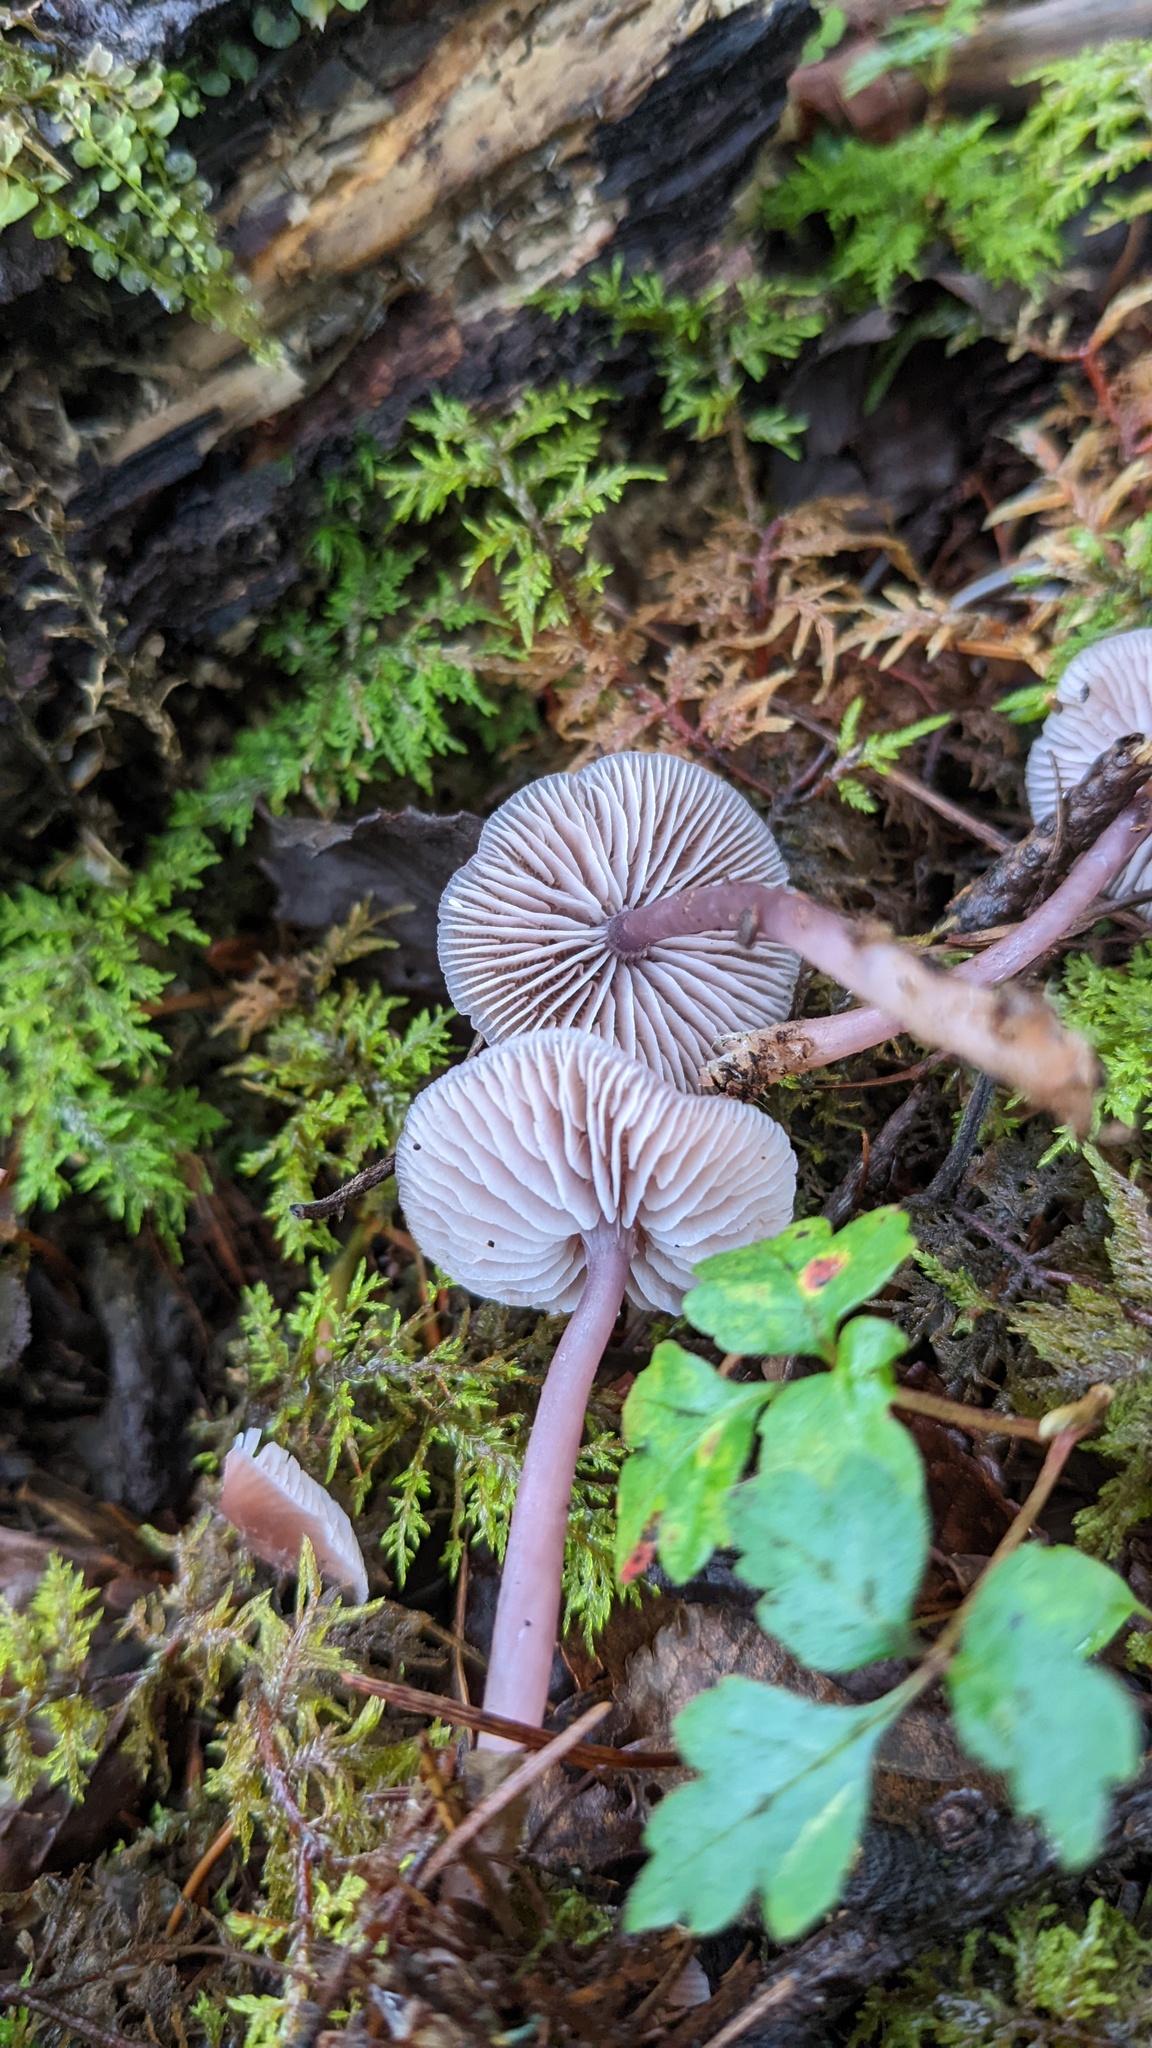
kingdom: Fungi
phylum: Basidiomycota
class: Agaricomycetes
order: Agaricales
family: Mycenaceae
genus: Mycena
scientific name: Mycena pura
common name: Lilac bonnet
